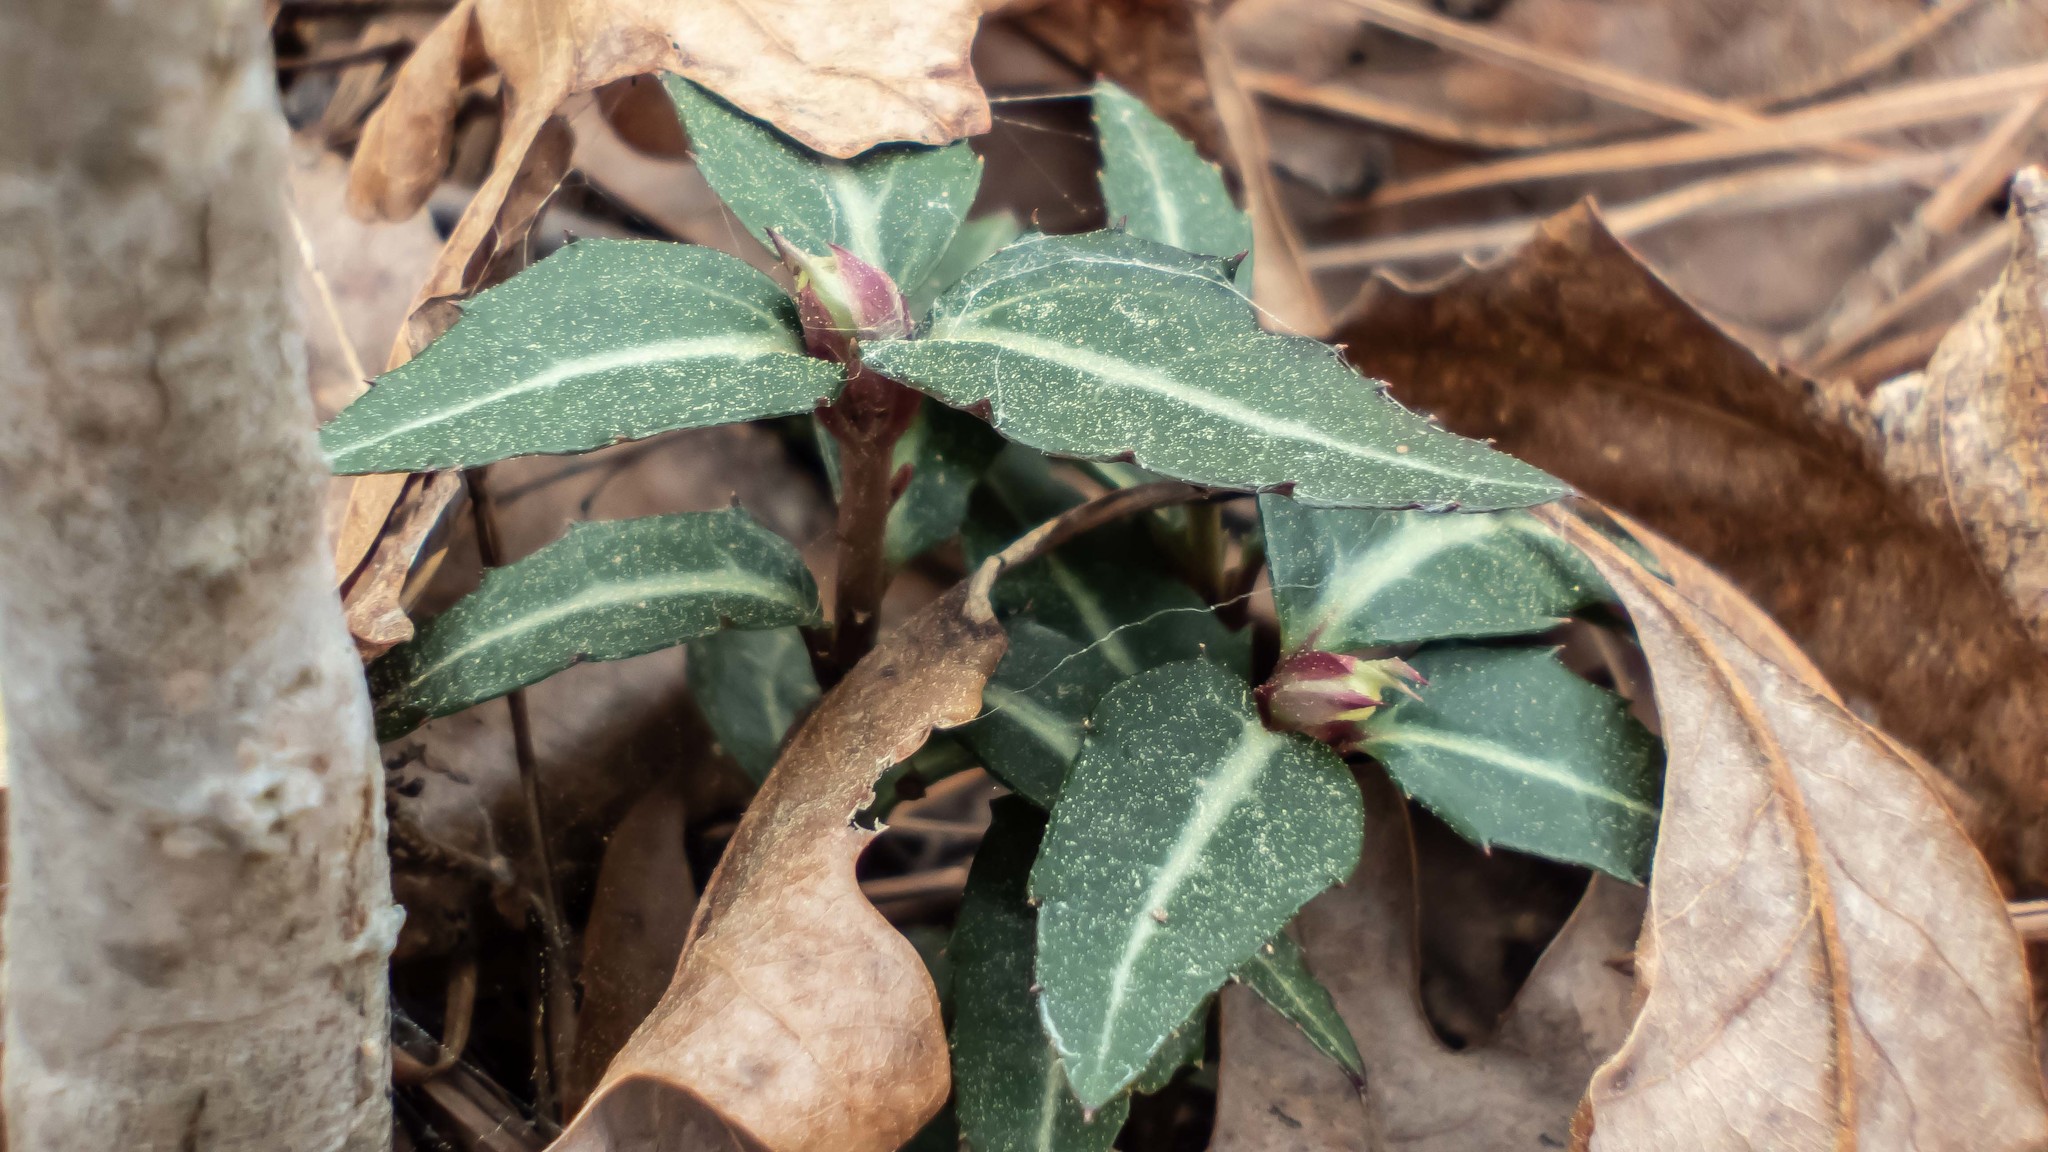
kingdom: Plantae
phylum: Tracheophyta
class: Magnoliopsida
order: Ericales
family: Ericaceae
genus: Chimaphila
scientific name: Chimaphila maculata
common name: Spotted pipsissewa
